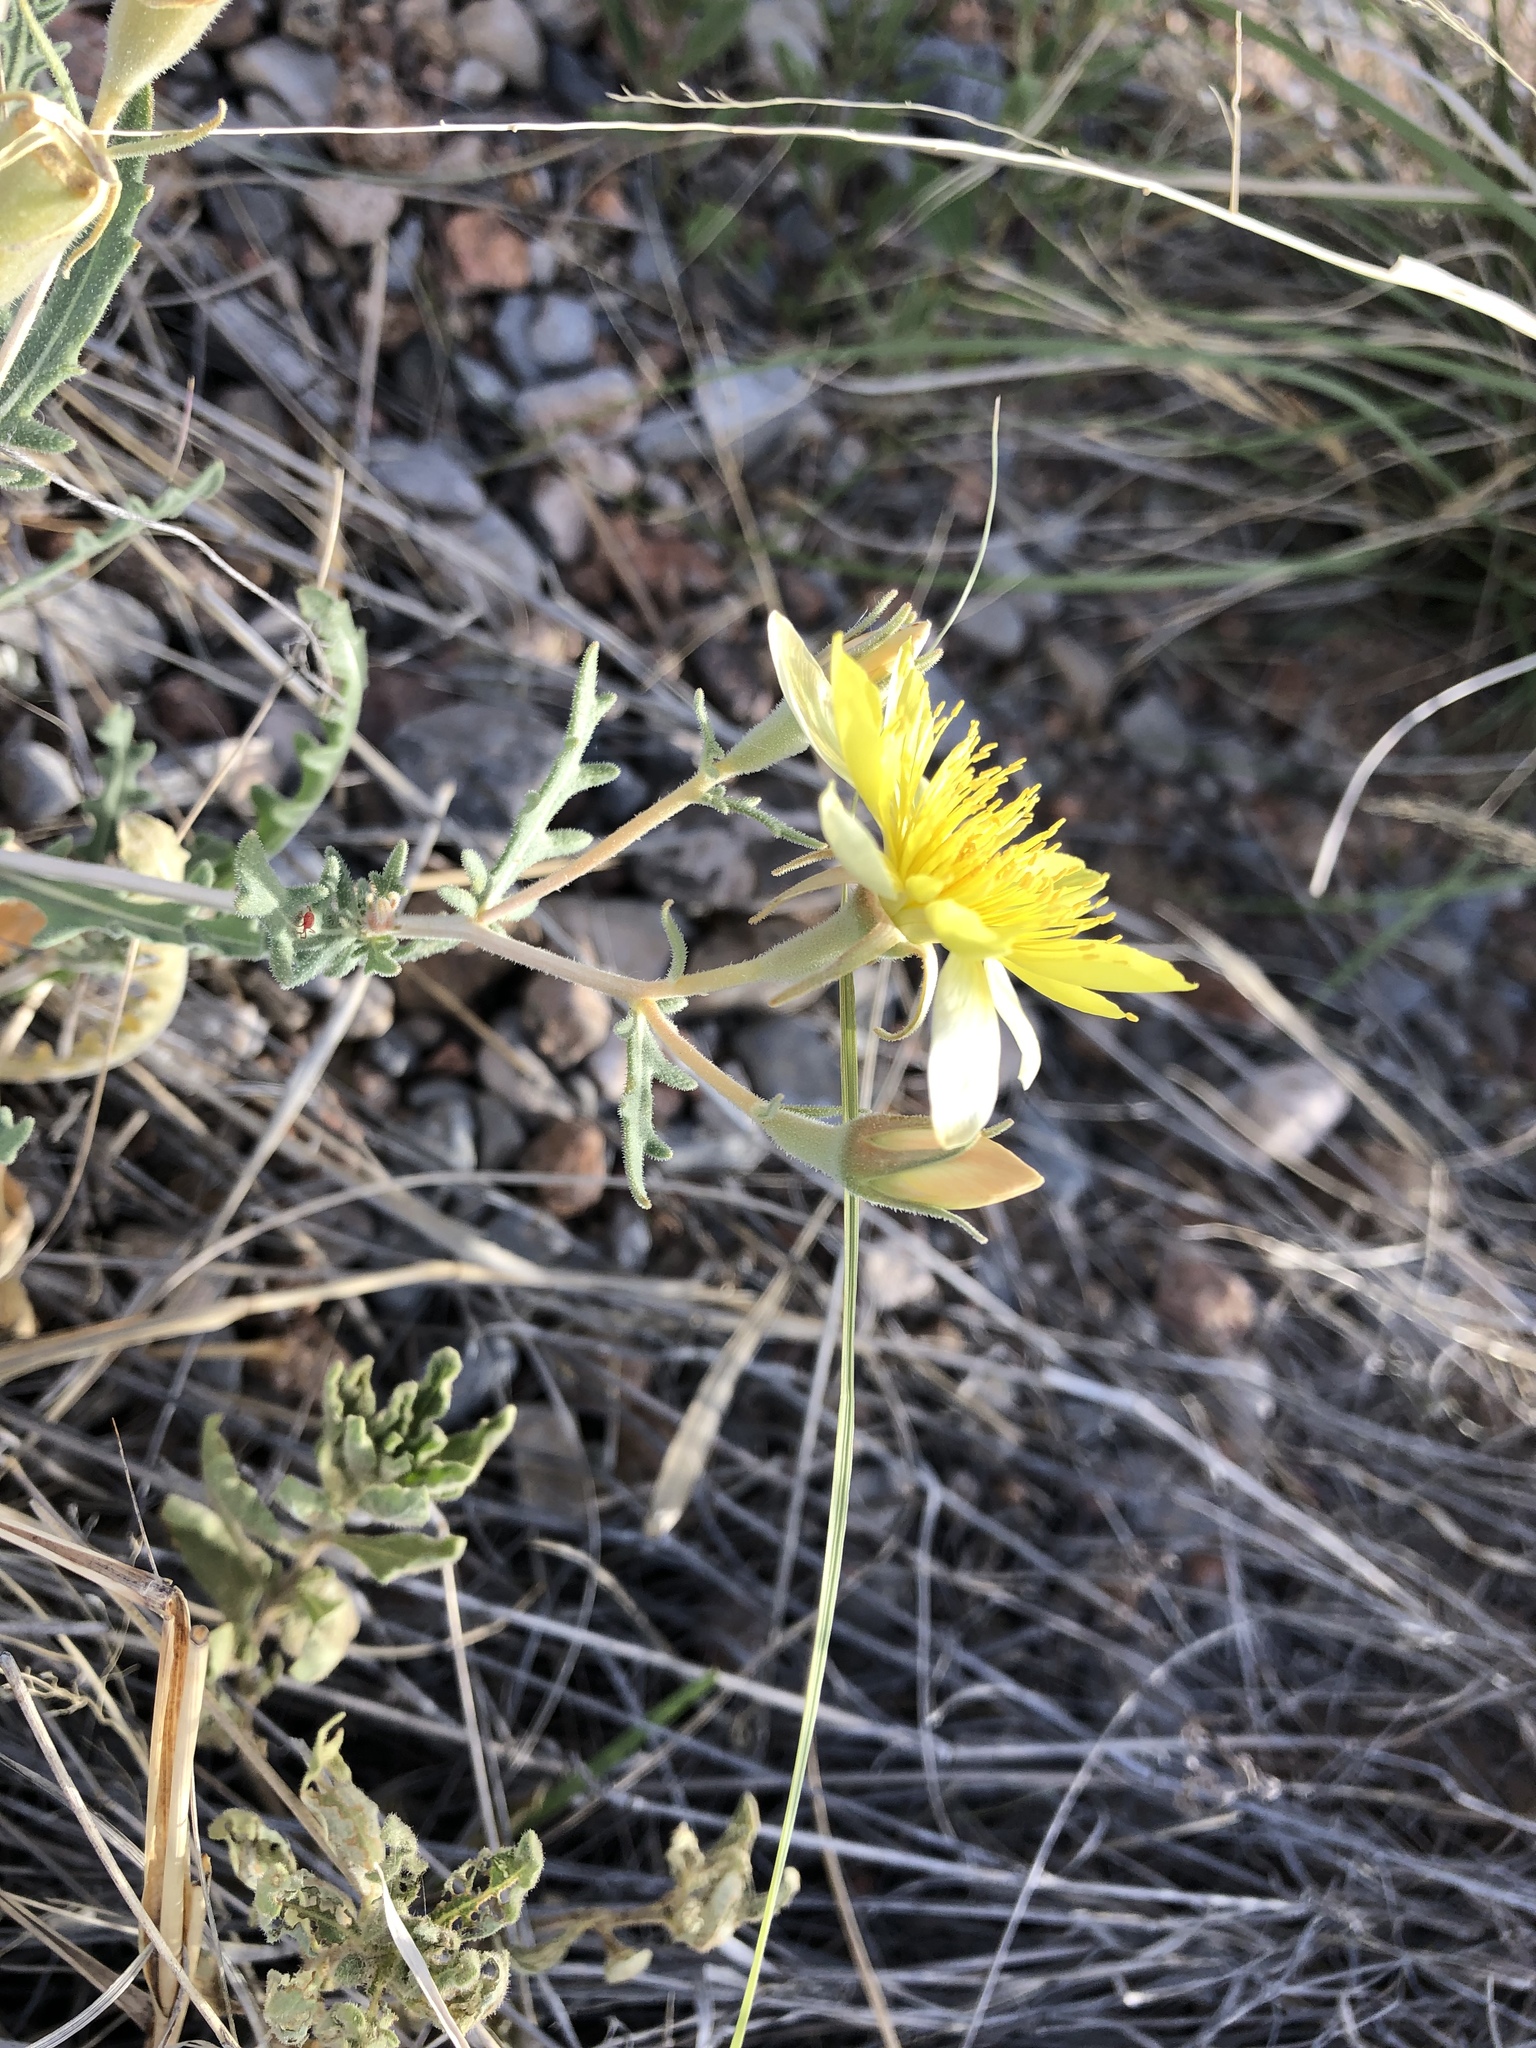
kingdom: Plantae
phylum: Tracheophyta
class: Magnoliopsida
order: Cornales
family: Loasaceae
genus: Mentzelia
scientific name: Mentzelia procera
